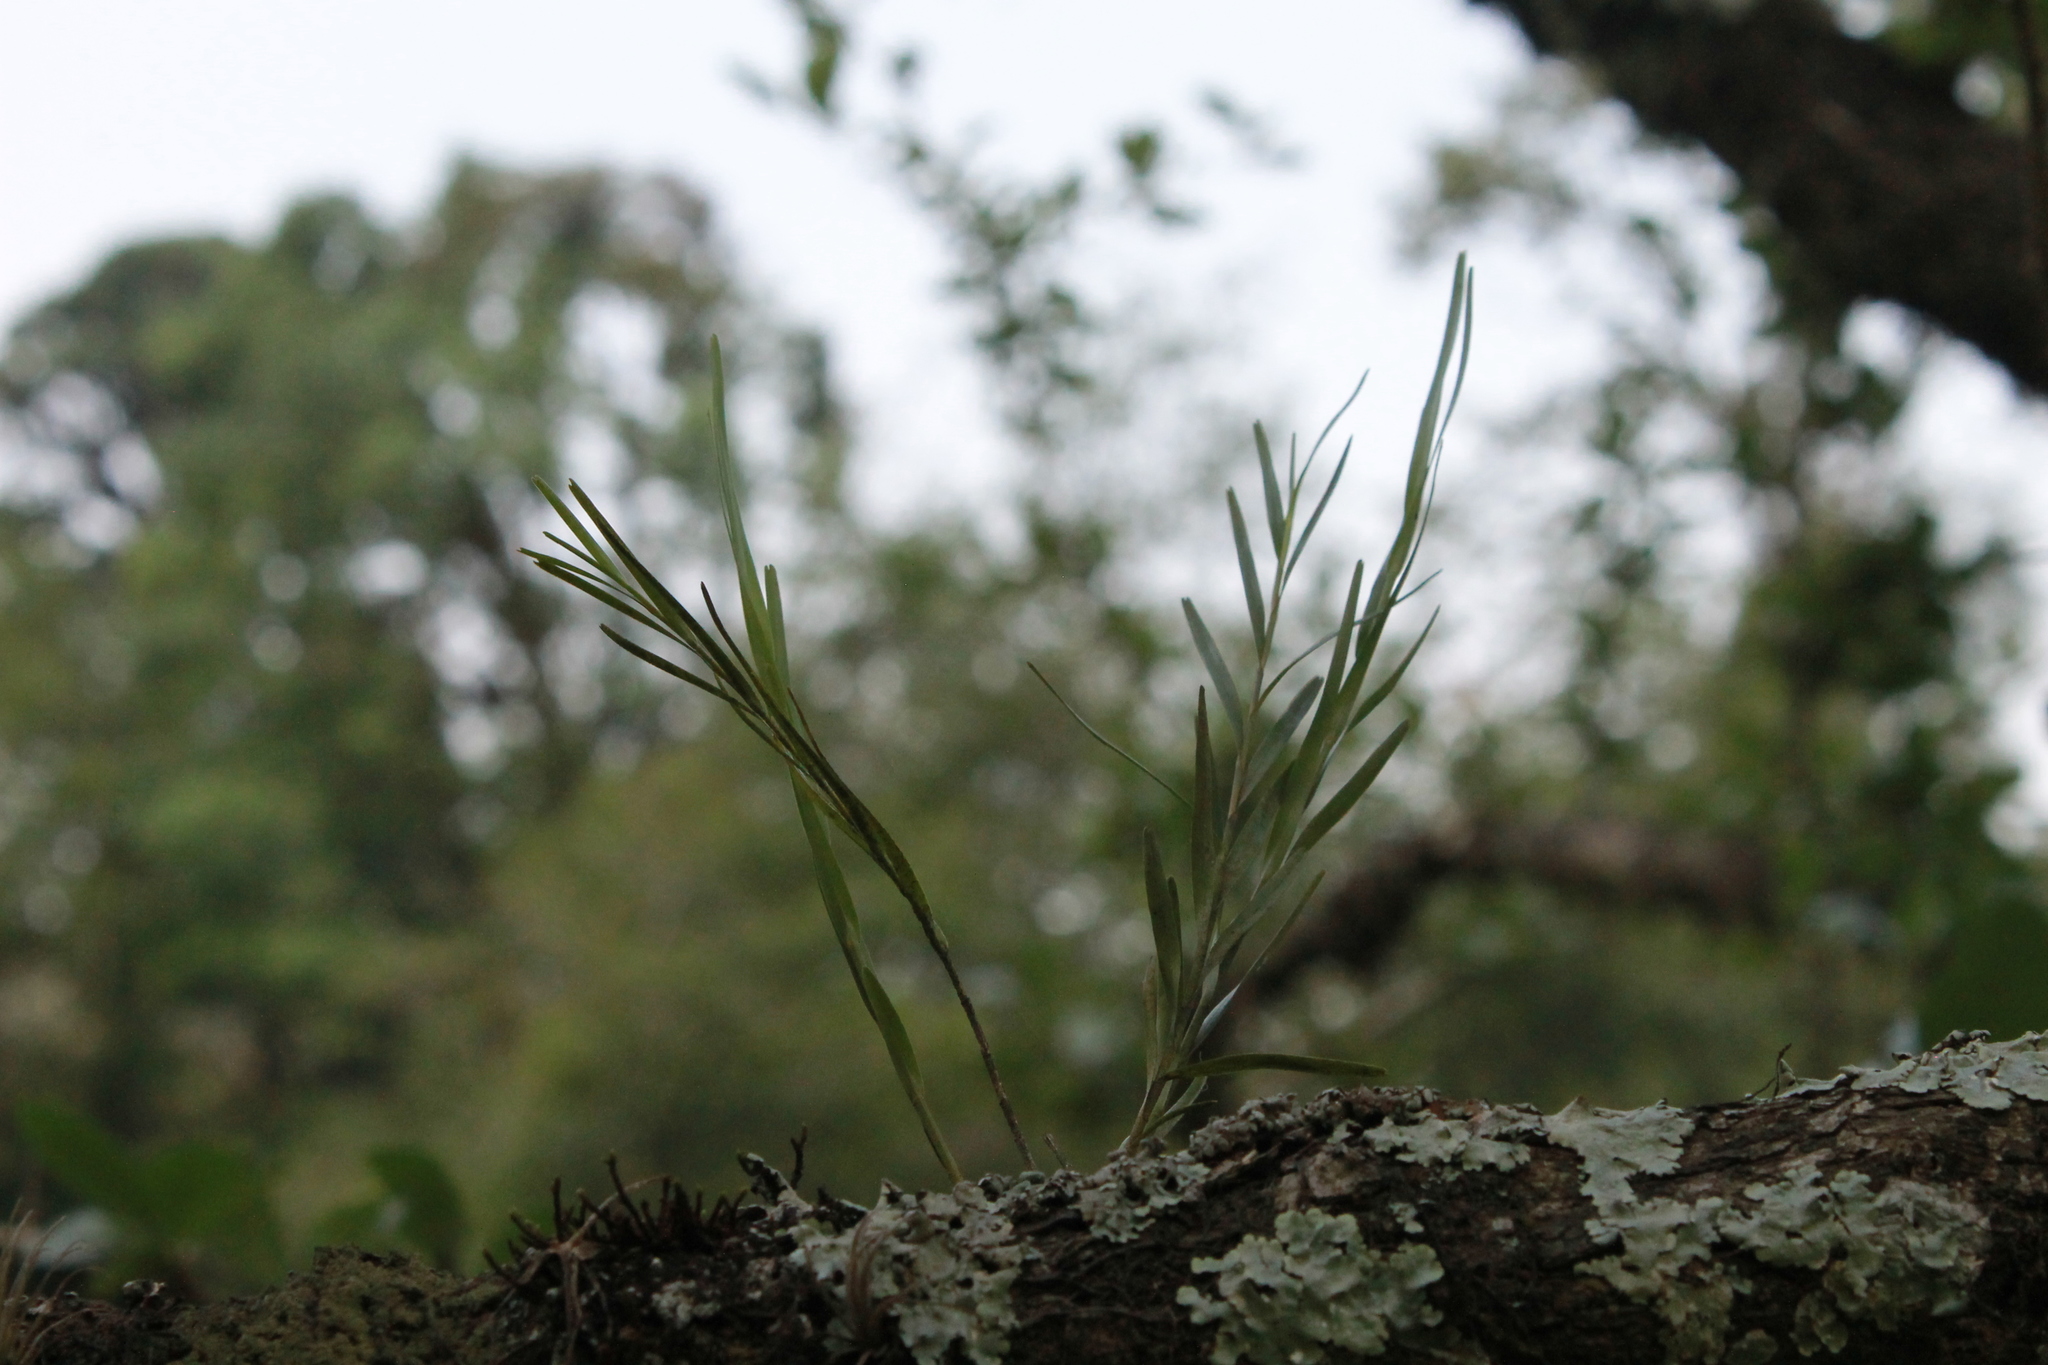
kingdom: Plantae
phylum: Tracheophyta
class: Liliopsida
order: Asparagales
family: Orchidaceae
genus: Isochilus
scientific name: Isochilus major
